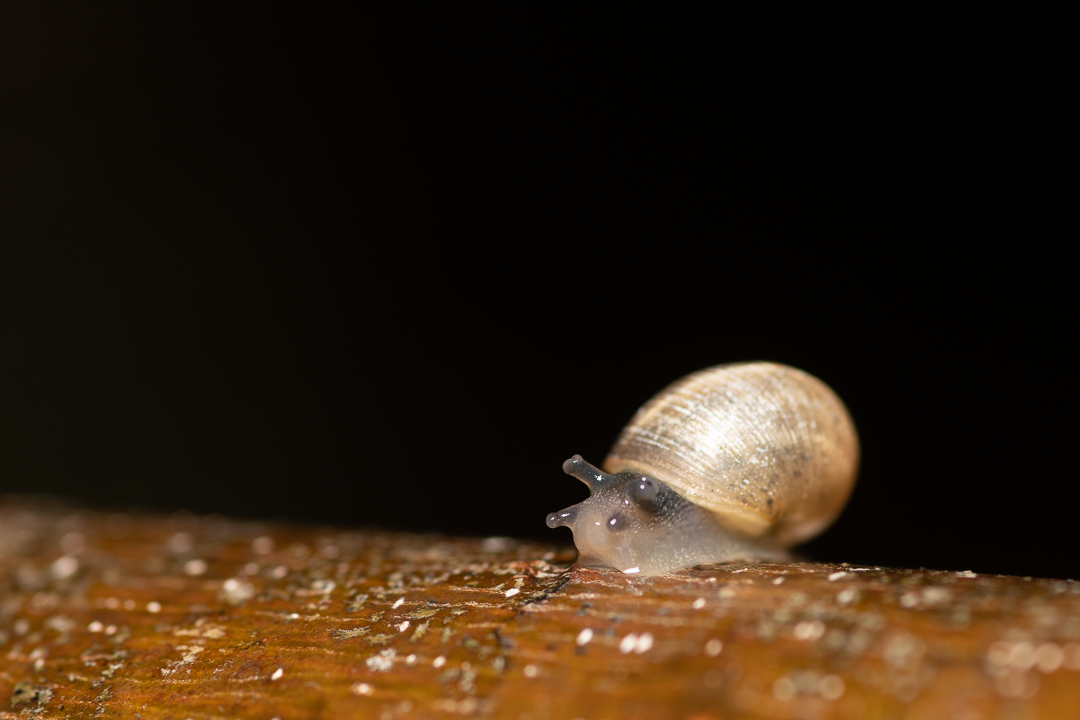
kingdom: Animalia
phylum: Mollusca
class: Gastropoda
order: Stylommatophora
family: Helicidae
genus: Cornu
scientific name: Cornu aspersum
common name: Brown garden snail
